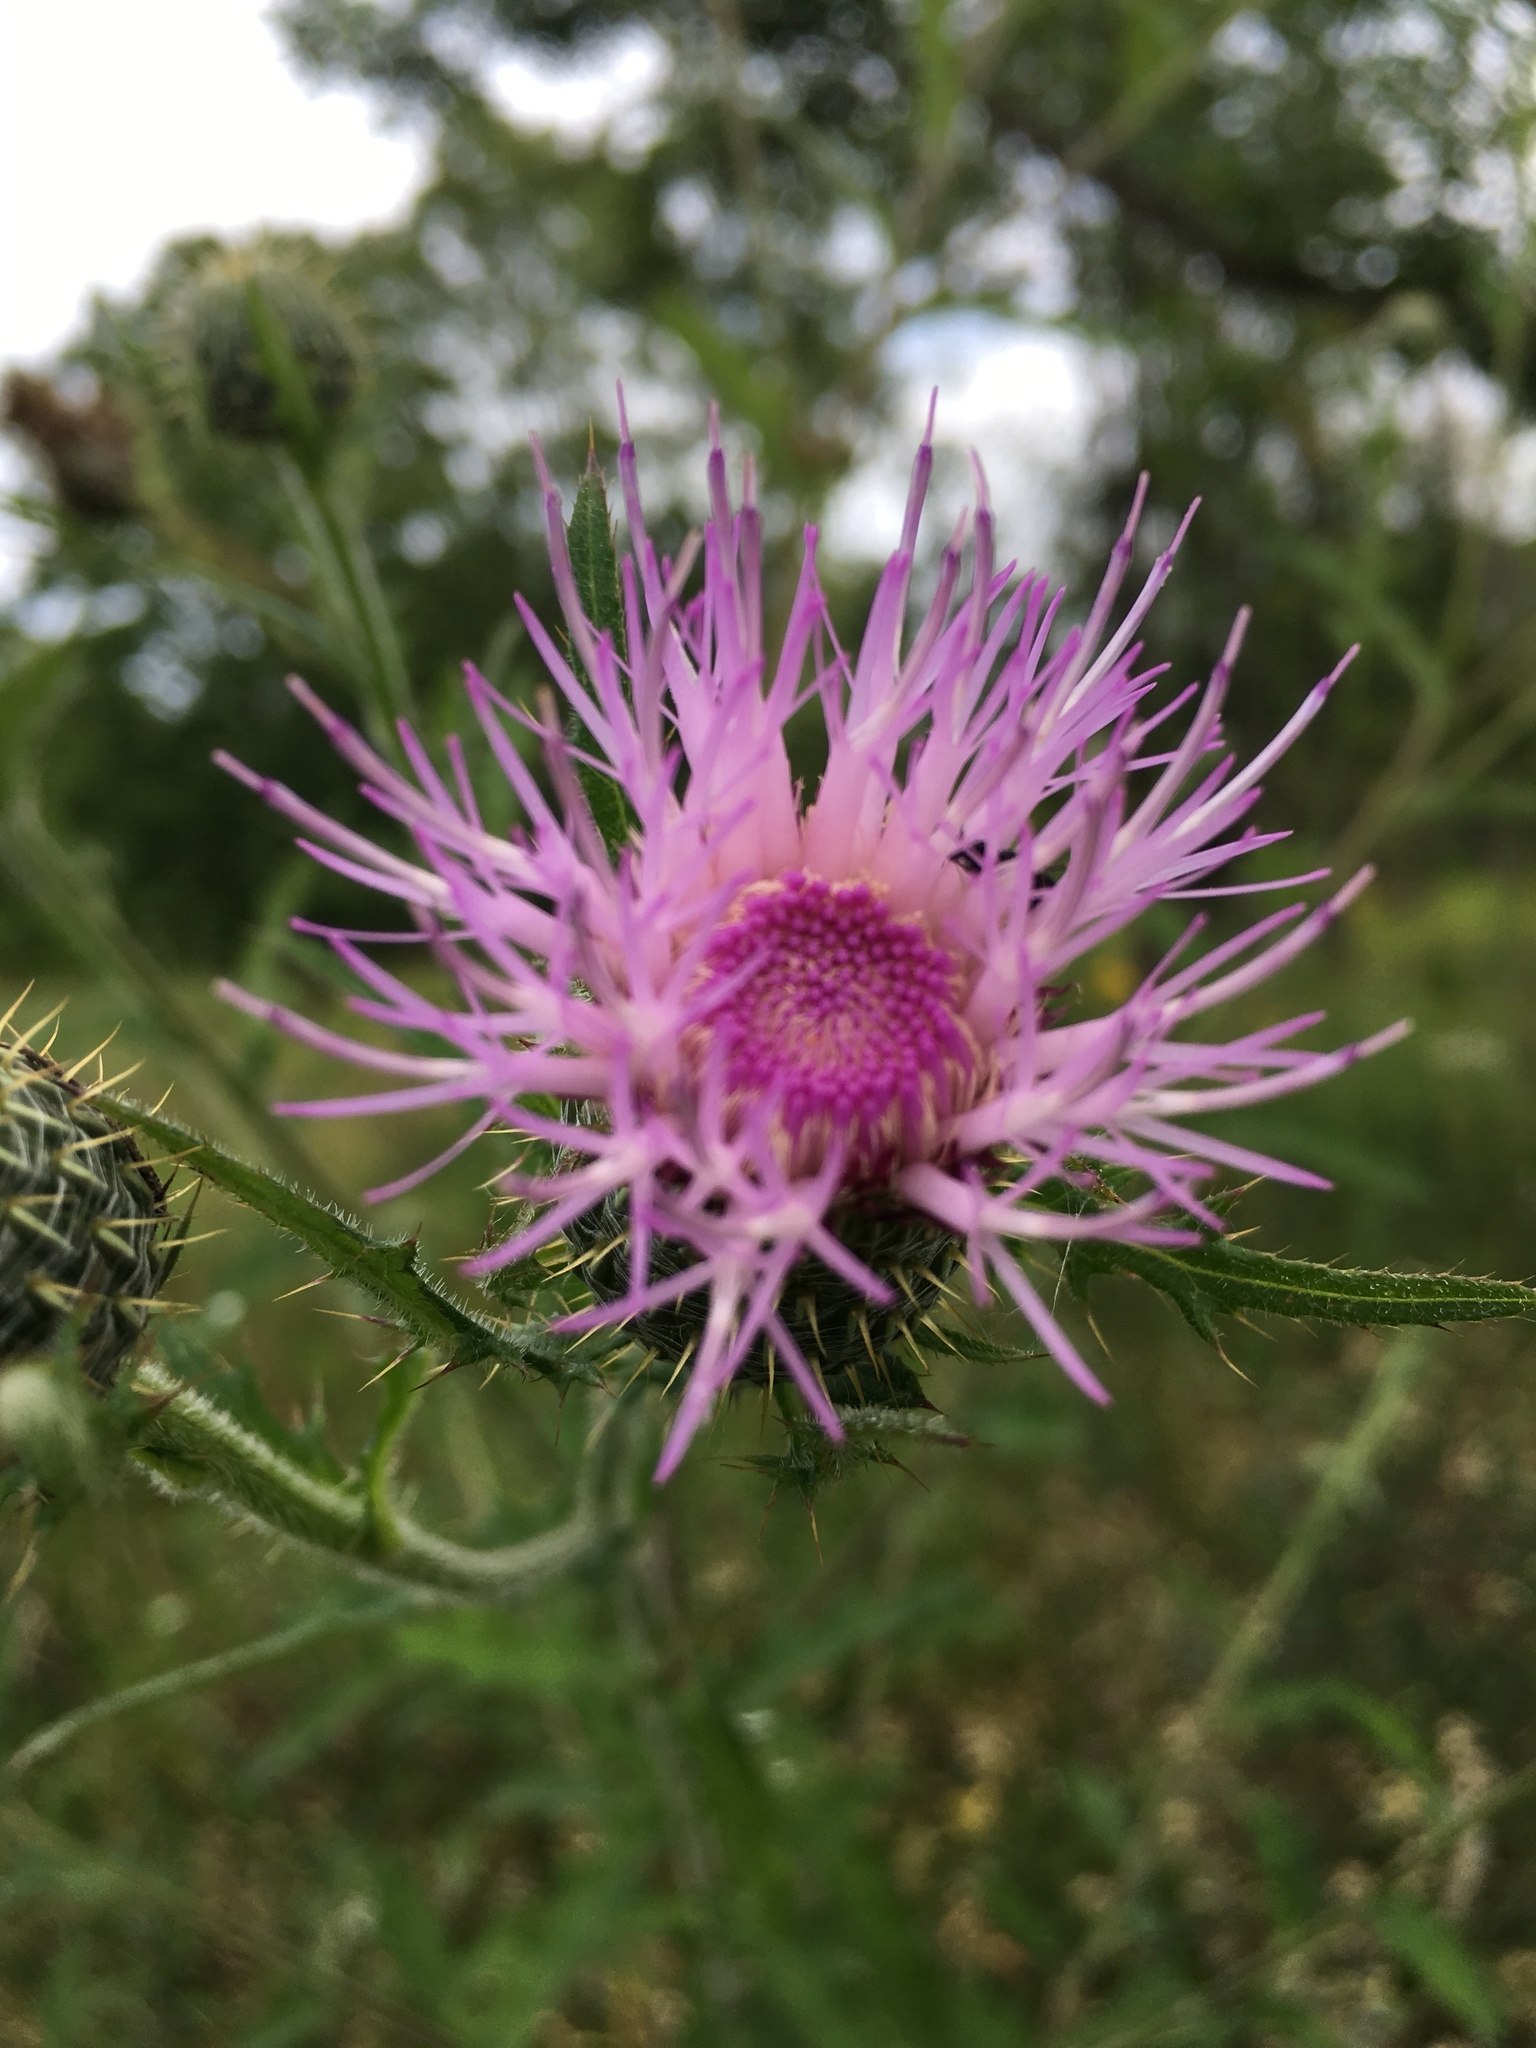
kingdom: Plantae
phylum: Tracheophyta
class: Magnoliopsida
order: Asterales
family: Asteraceae
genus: Cirsium
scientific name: Cirsium altissimum
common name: Roadside thistle
